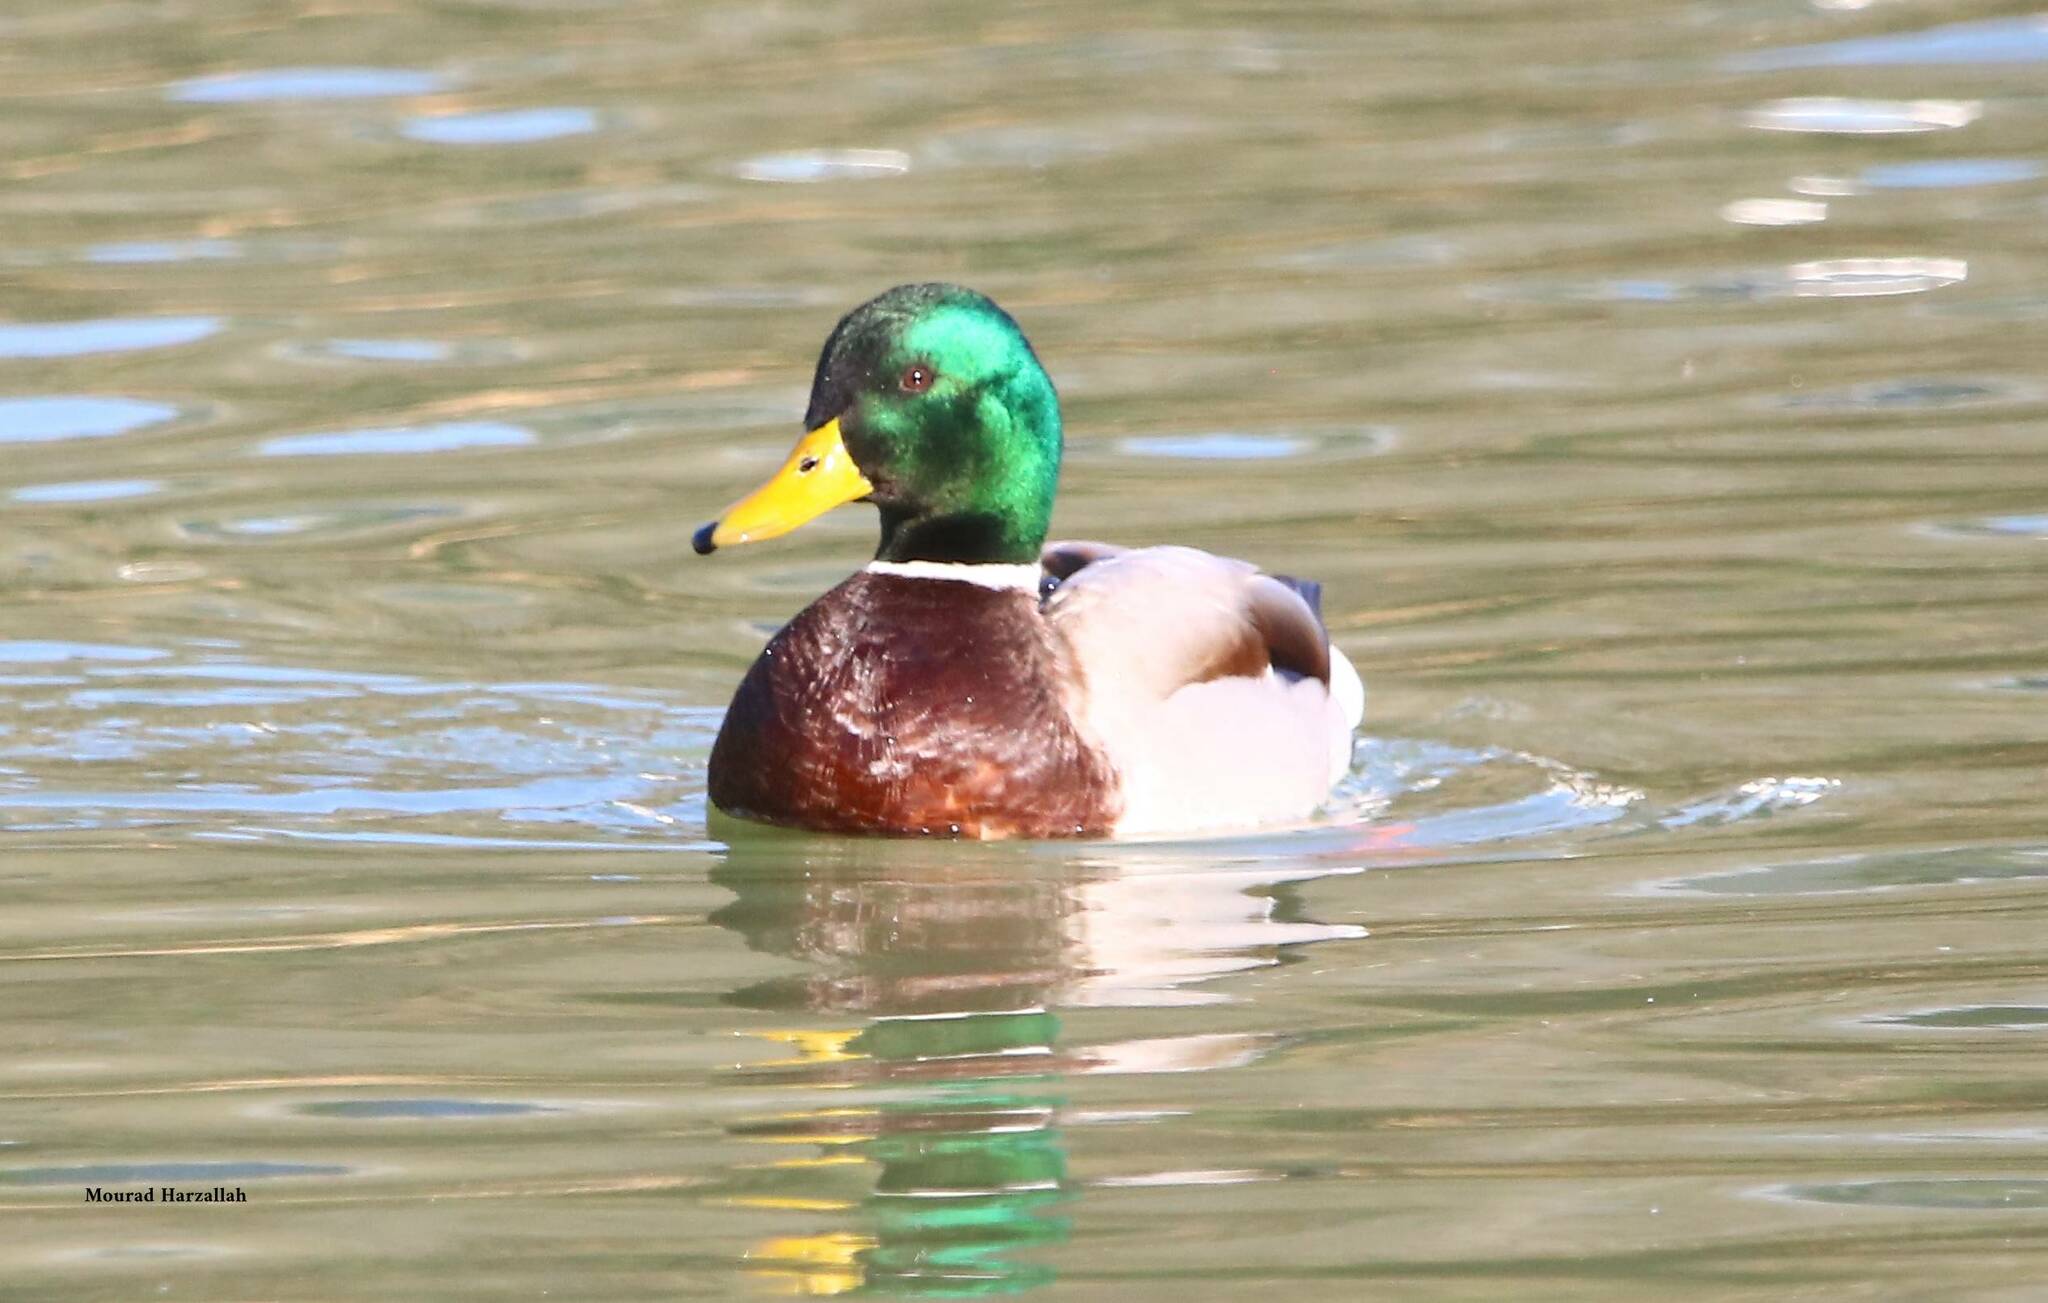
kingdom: Animalia
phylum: Chordata
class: Aves
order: Anseriformes
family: Anatidae
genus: Anas
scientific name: Anas platyrhynchos
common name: Mallard
